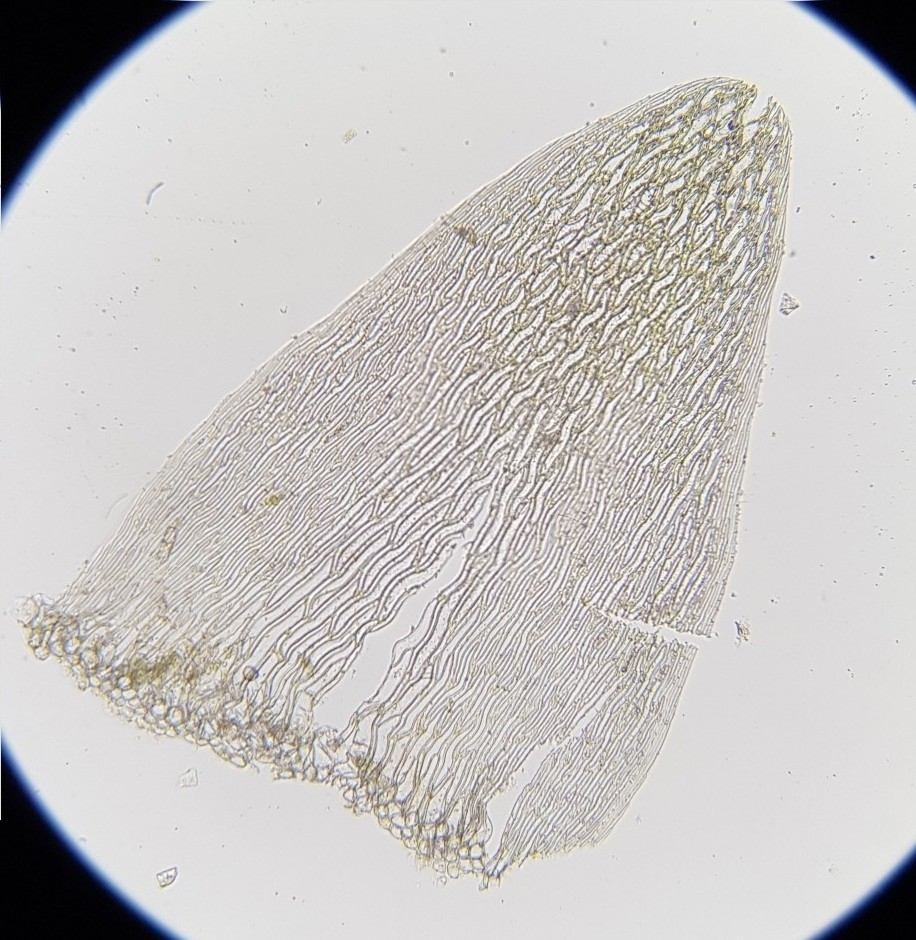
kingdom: Plantae
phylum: Bryophyta
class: Sphagnopsida
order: Sphagnales
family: Sphagnaceae
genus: Sphagnum
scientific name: Sphagnum flexuosum
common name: Flexible peat moss
